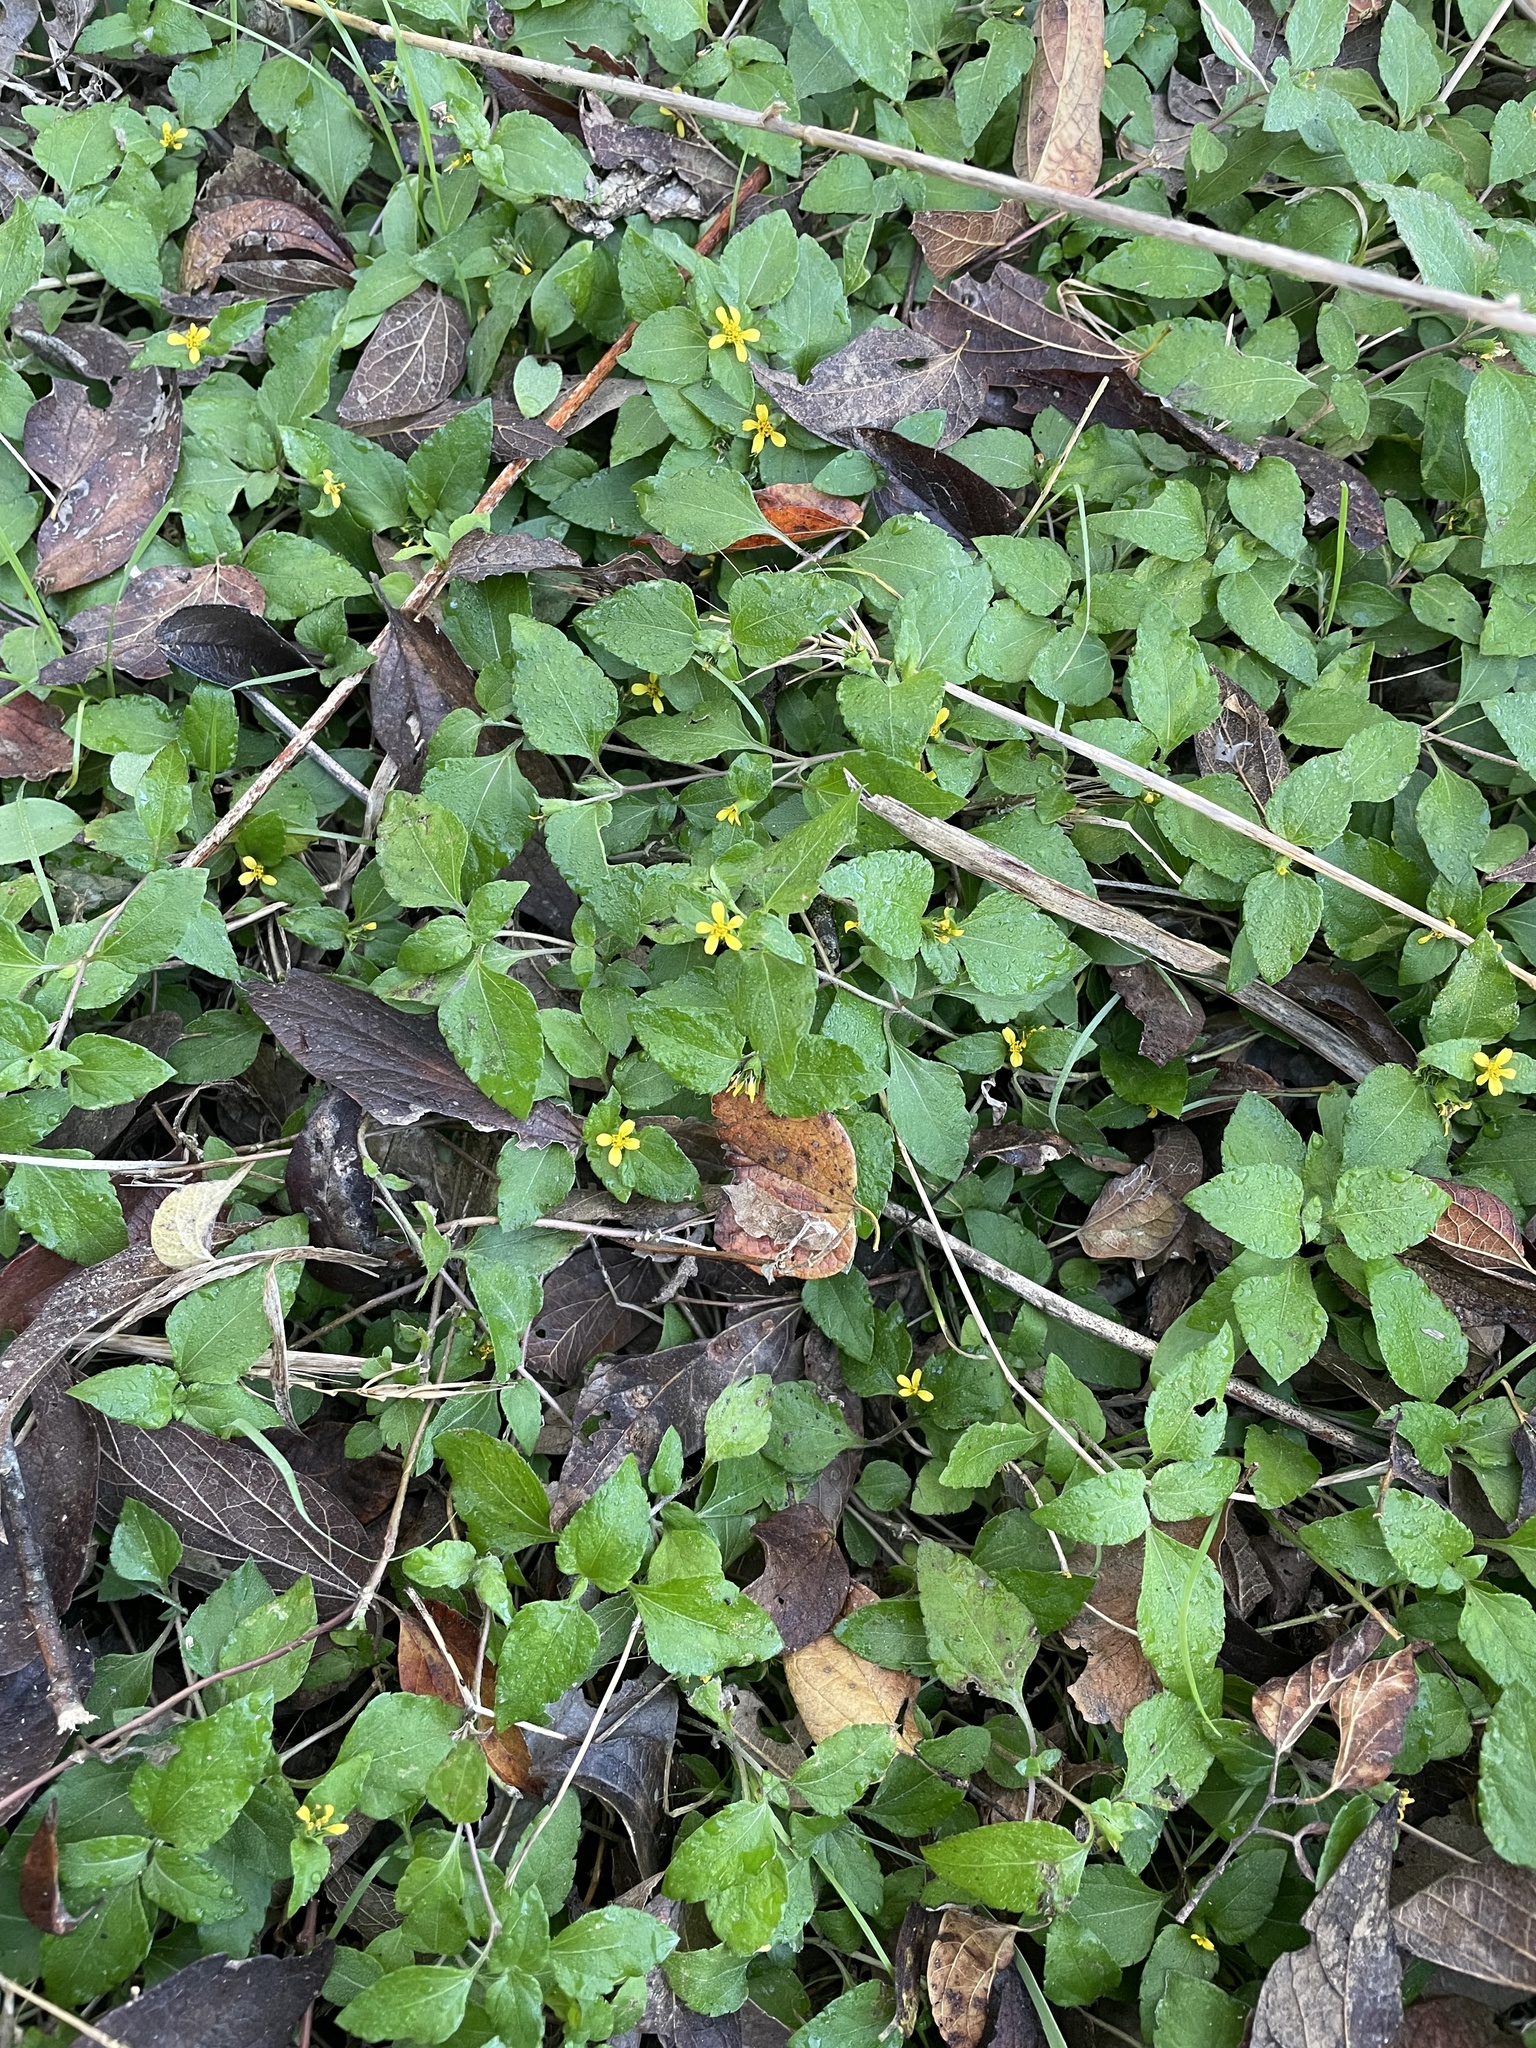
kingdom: Plantae
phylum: Tracheophyta
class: Magnoliopsida
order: Asterales
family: Asteraceae
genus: Calyptocarpus
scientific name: Calyptocarpus vialis
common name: Straggler daisy
